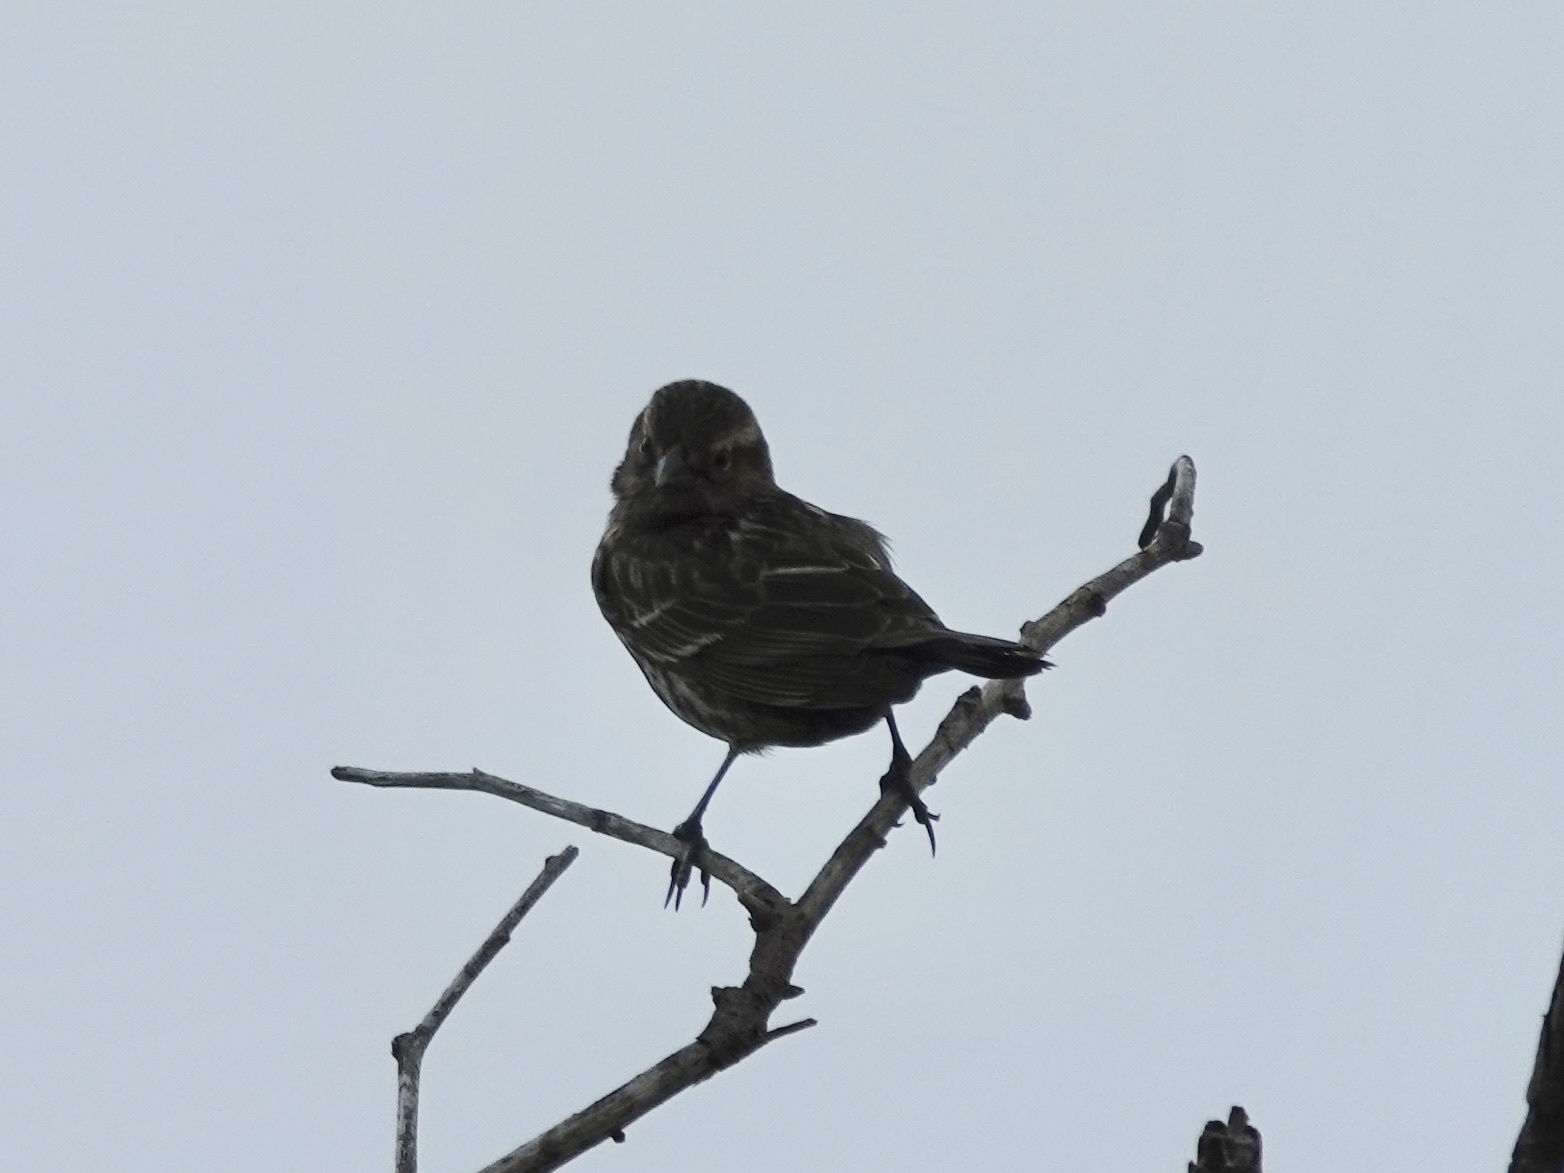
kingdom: Animalia
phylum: Chordata
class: Aves
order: Passeriformes
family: Icteridae
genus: Agelaius
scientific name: Agelaius phoeniceus
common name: Red-winged blackbird
